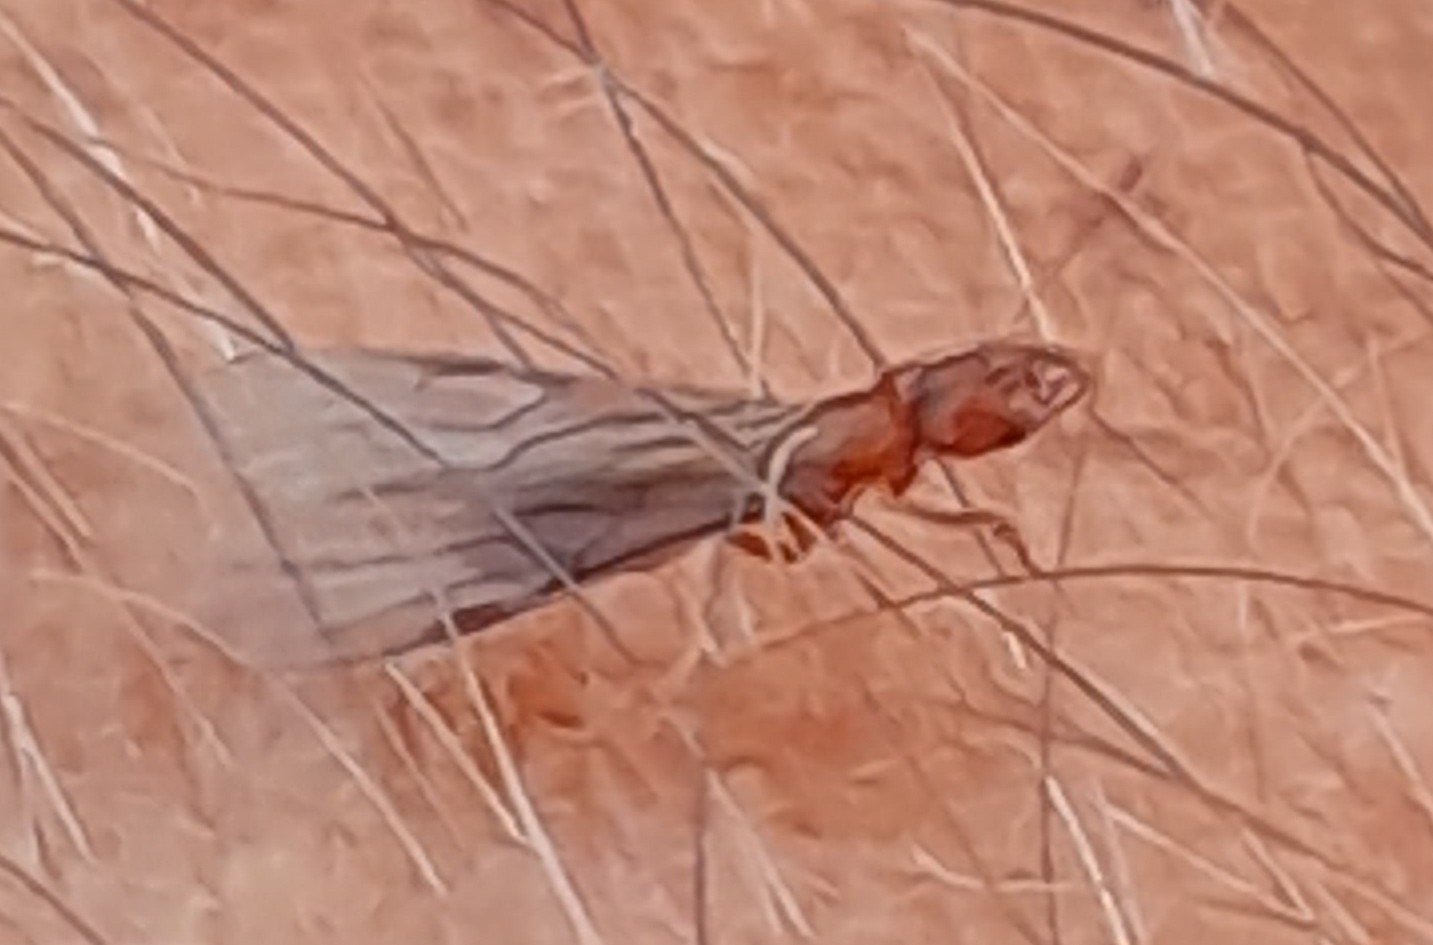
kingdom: Animalia
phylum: Arthropoda
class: Insecta
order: Hymenoptera
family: Formicidae
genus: Cryptopone
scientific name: Cryptopone ochracea
